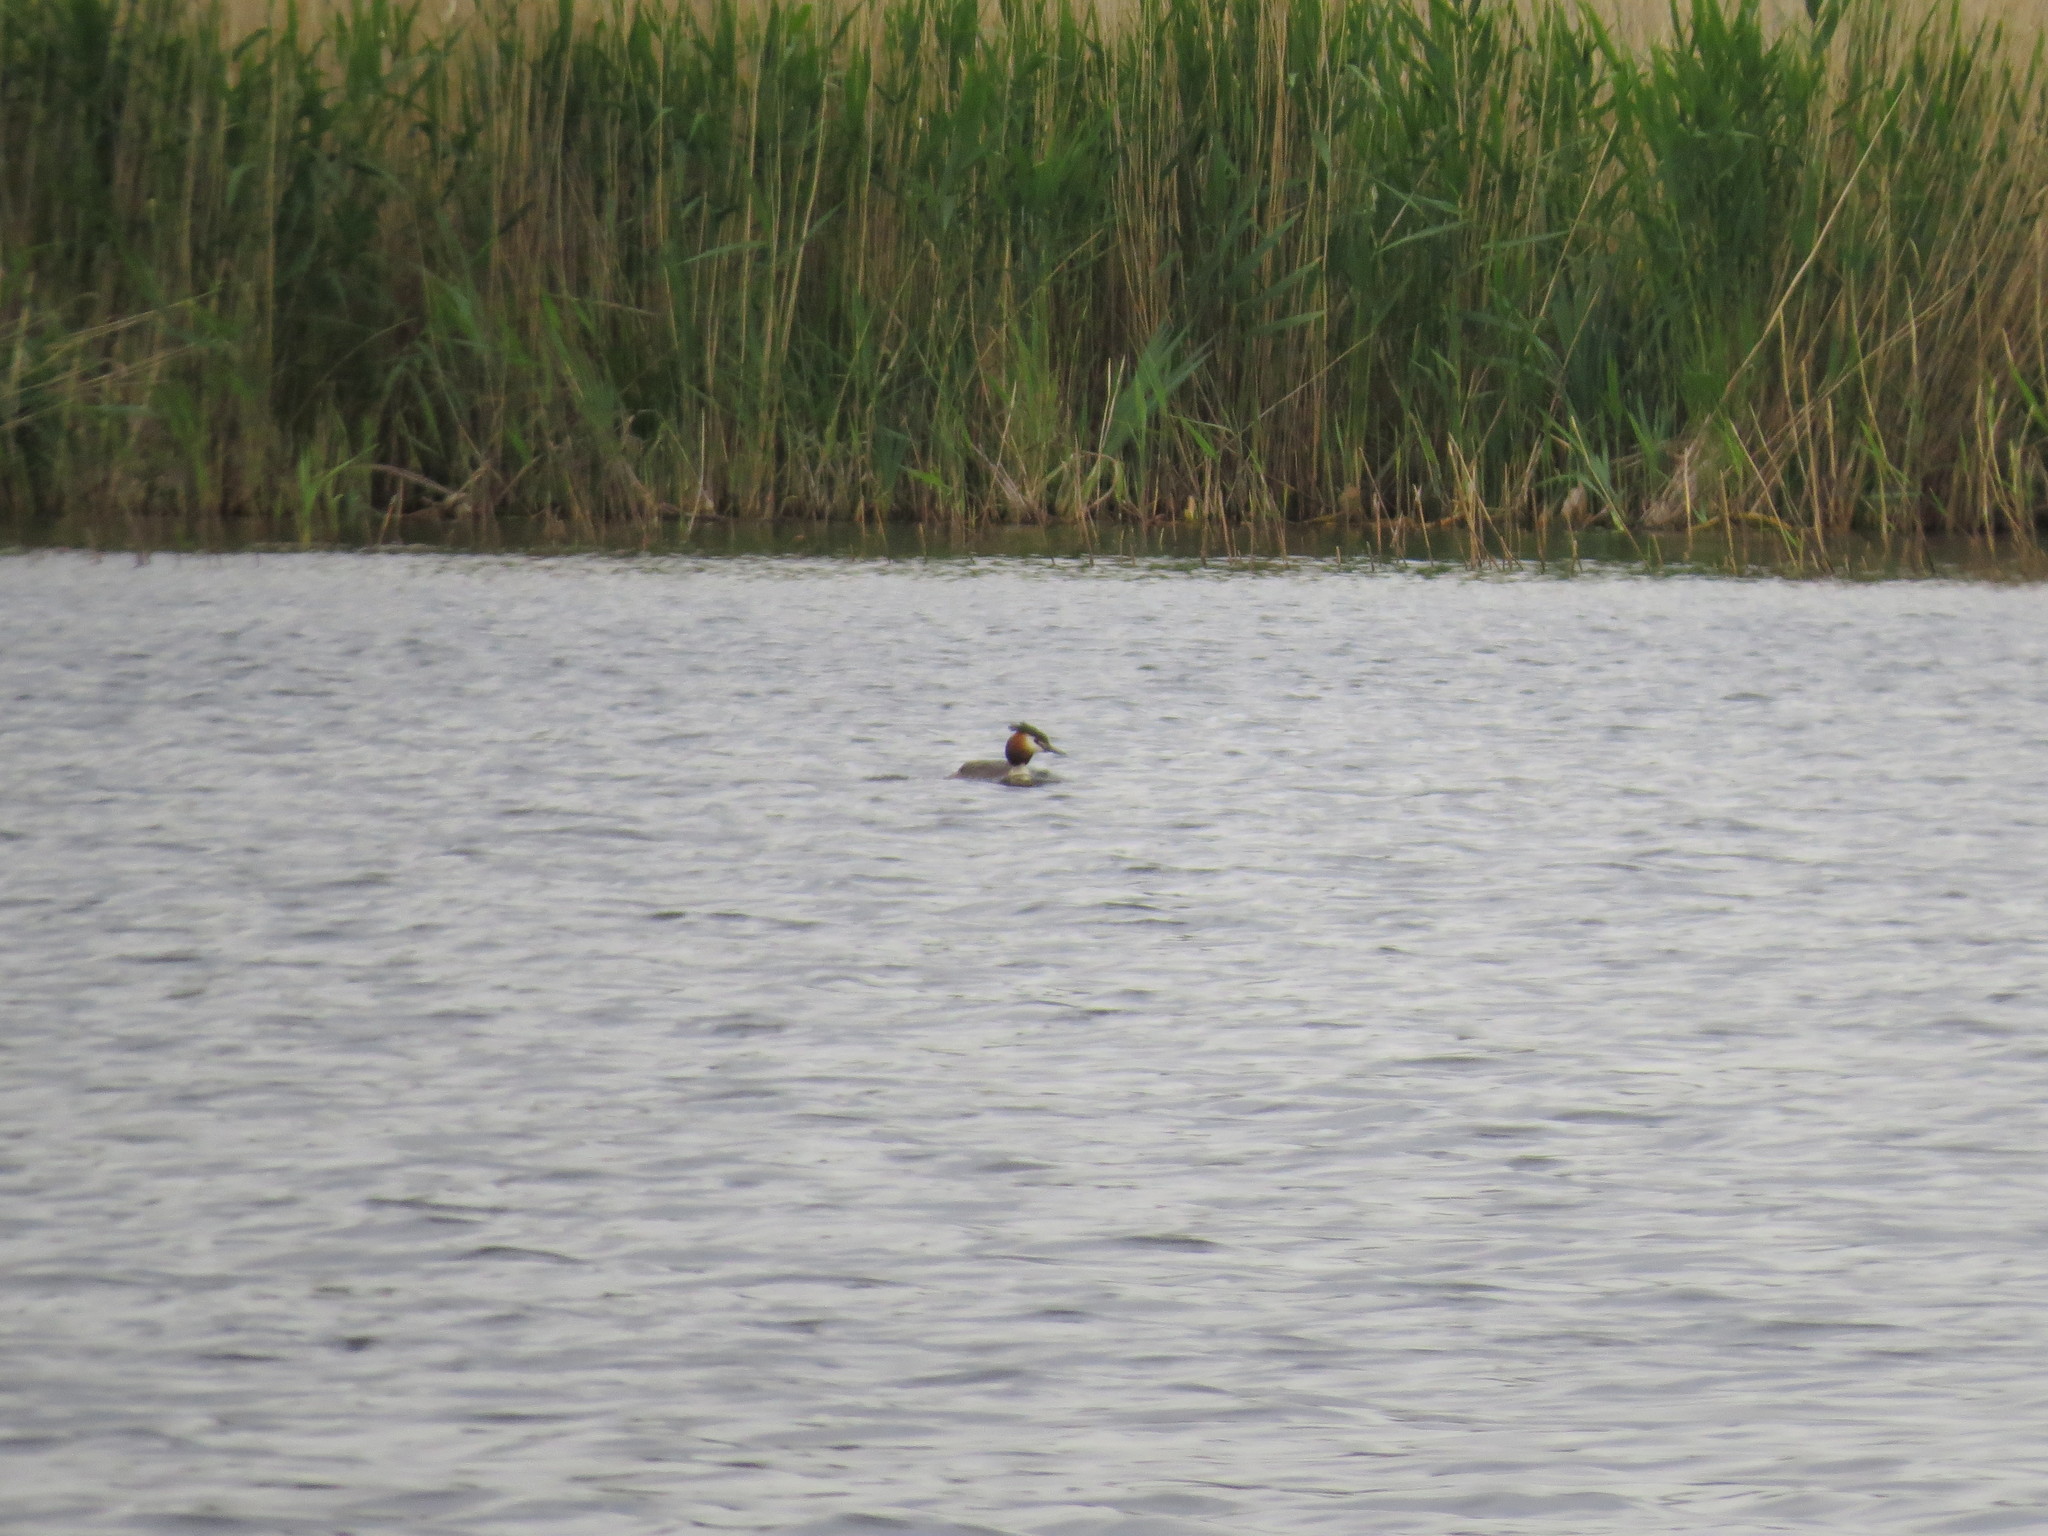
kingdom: Animalia
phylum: Chordata
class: Aves
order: Podicipediformes
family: Podicipedidae
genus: Podiceps
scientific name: Podiceps cristatus
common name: Great crested grebe
